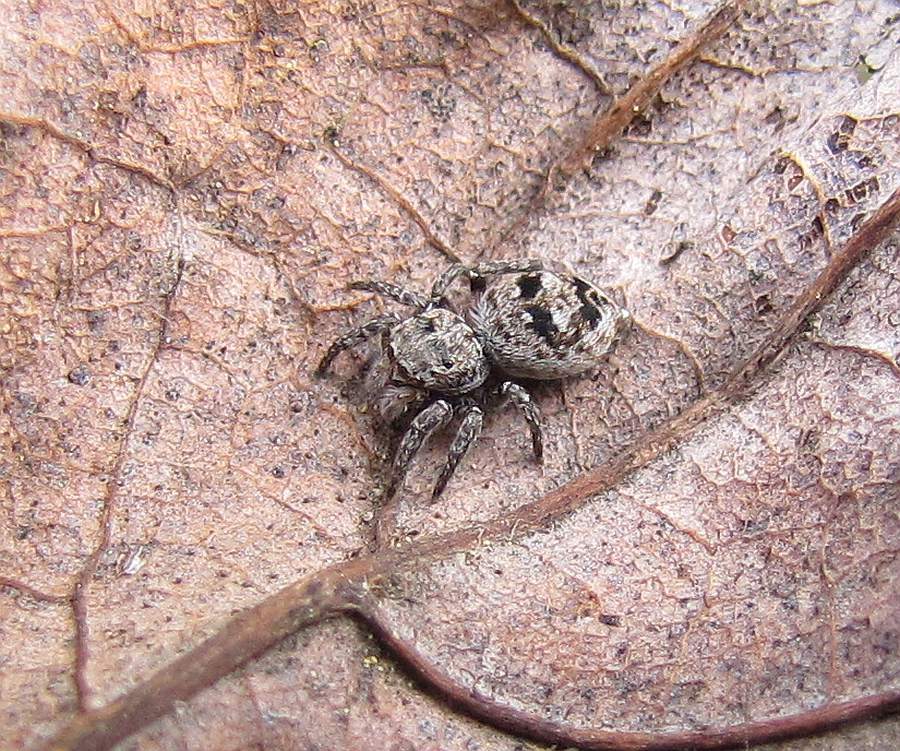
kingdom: Animalia
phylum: Arthropoda
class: Arachnida
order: Araneae
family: Salticidae
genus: Attulus
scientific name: Attulus floricola
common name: Flower jumping spider
